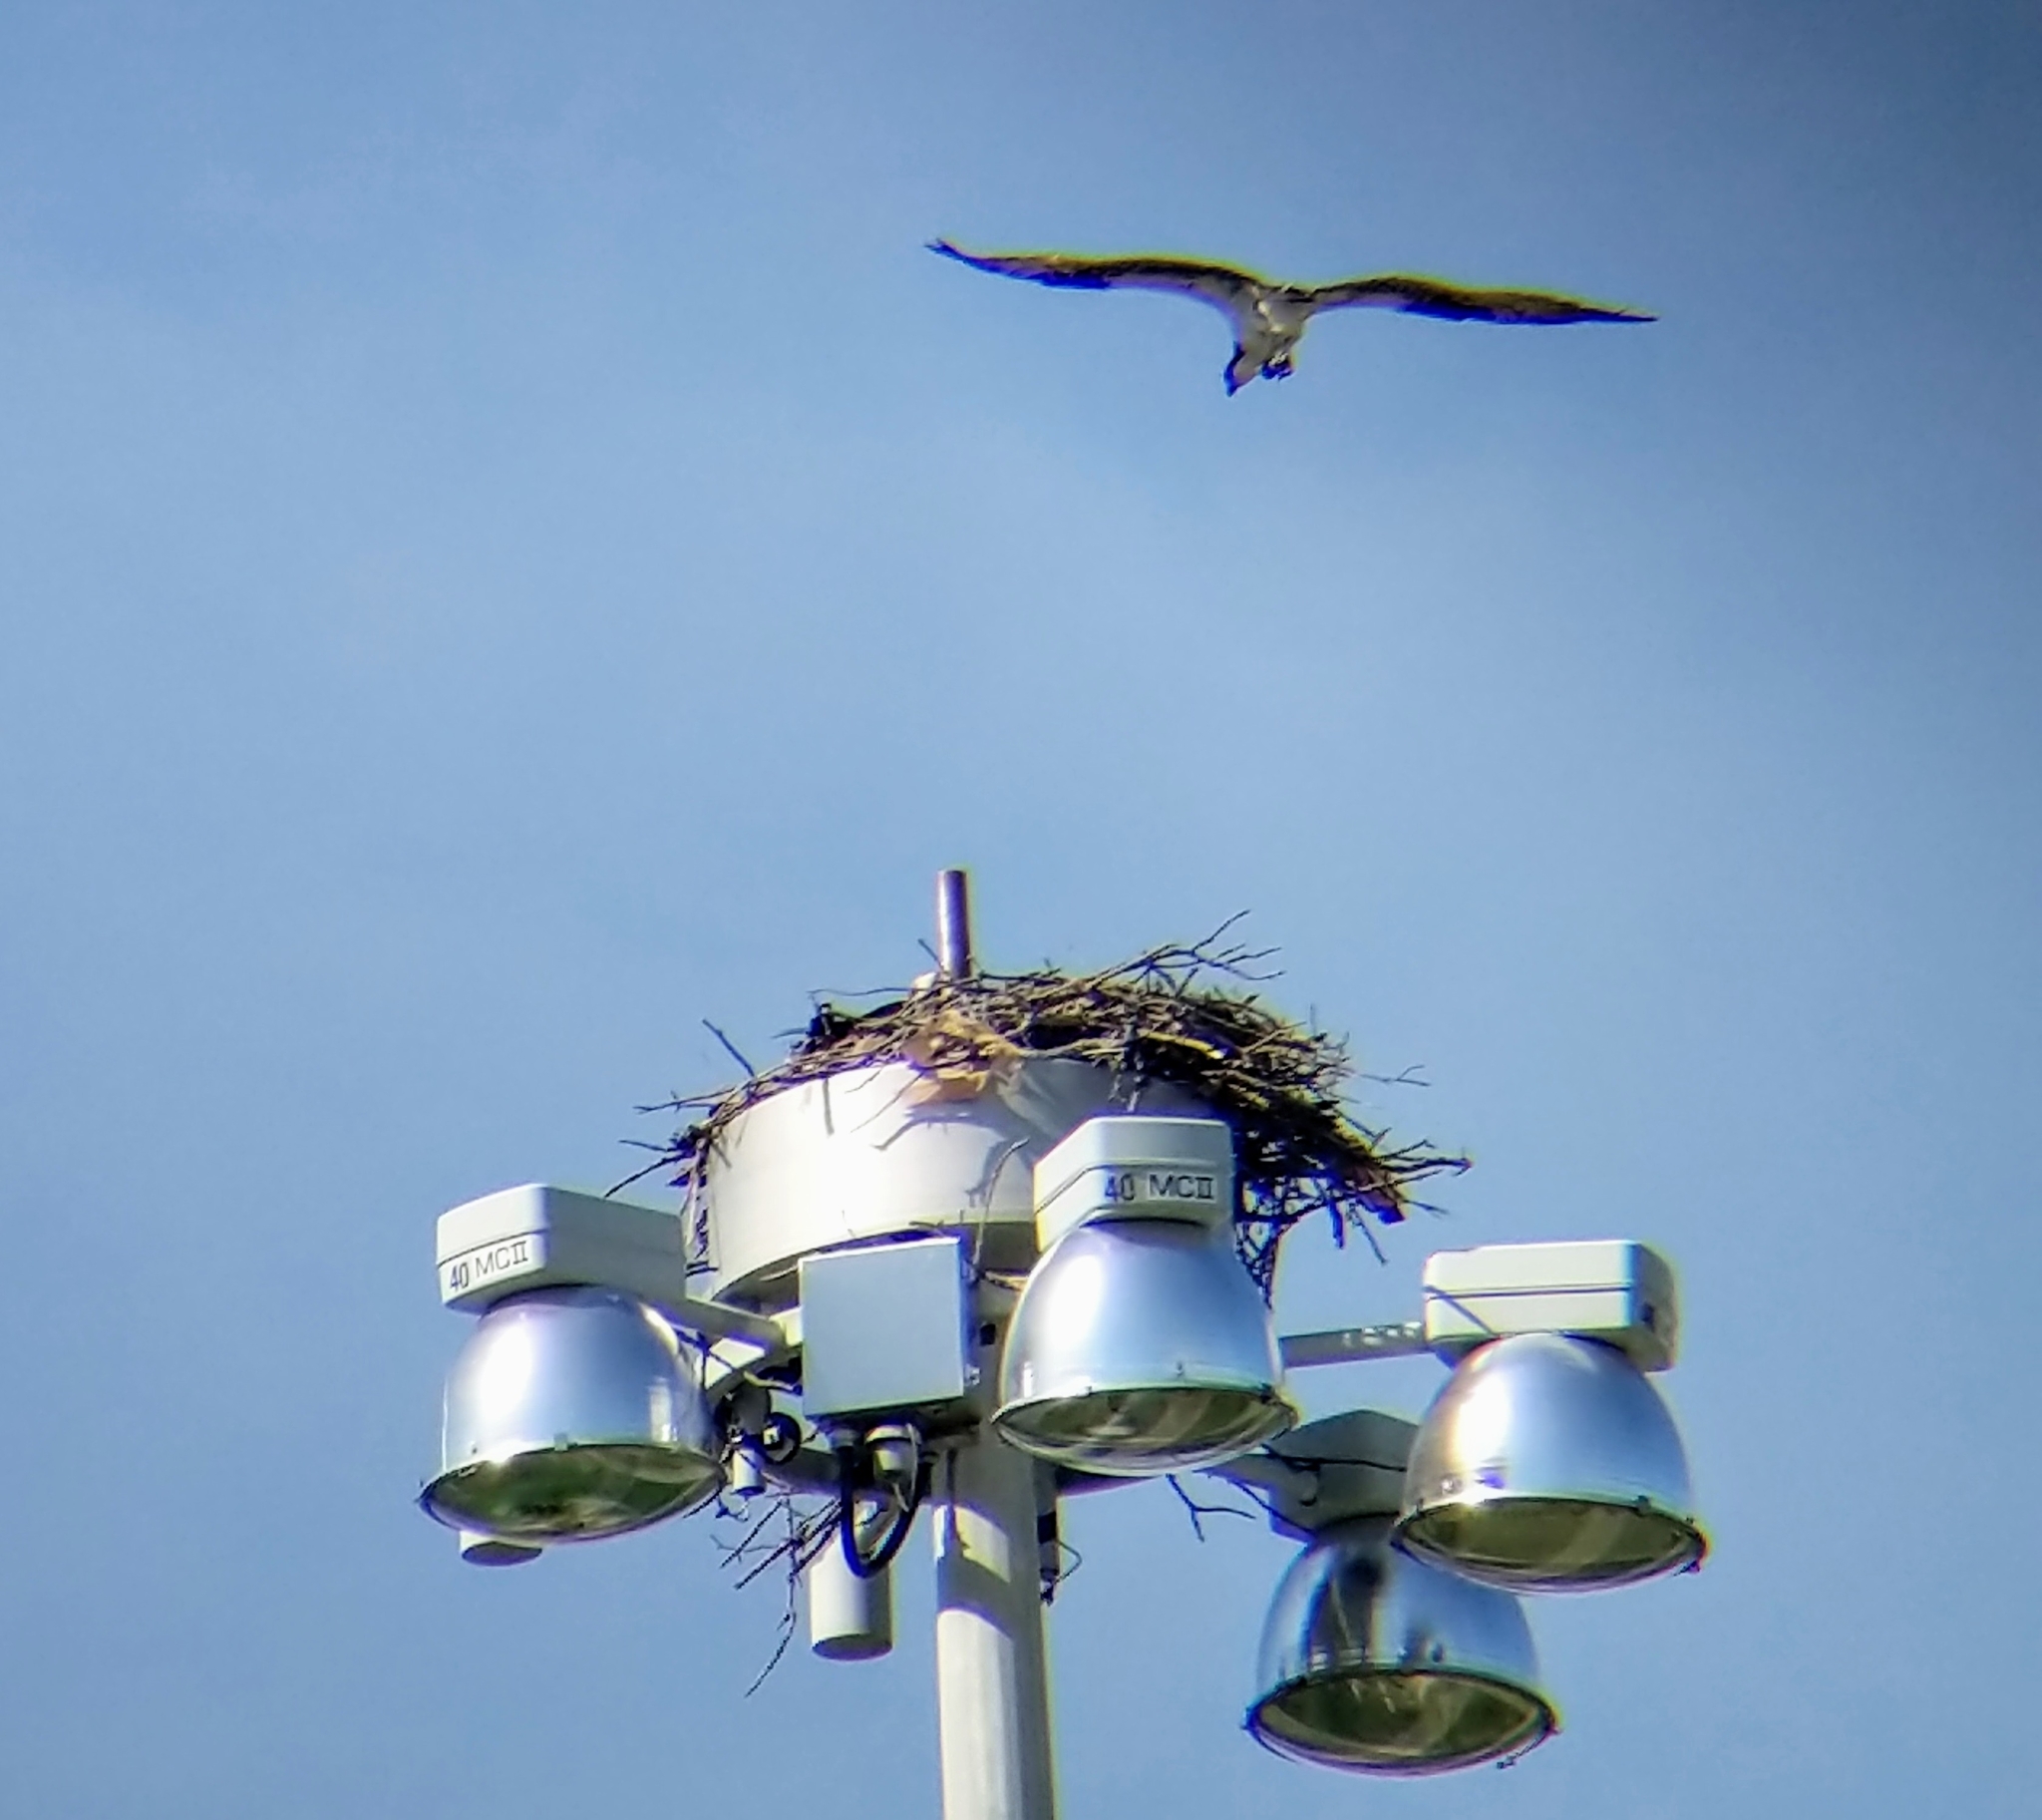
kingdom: Animalia
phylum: Chordata
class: Aves
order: Accipitriformes
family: Pandionidae
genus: Pandion
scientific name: Pandion haliaetus
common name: Osprey
